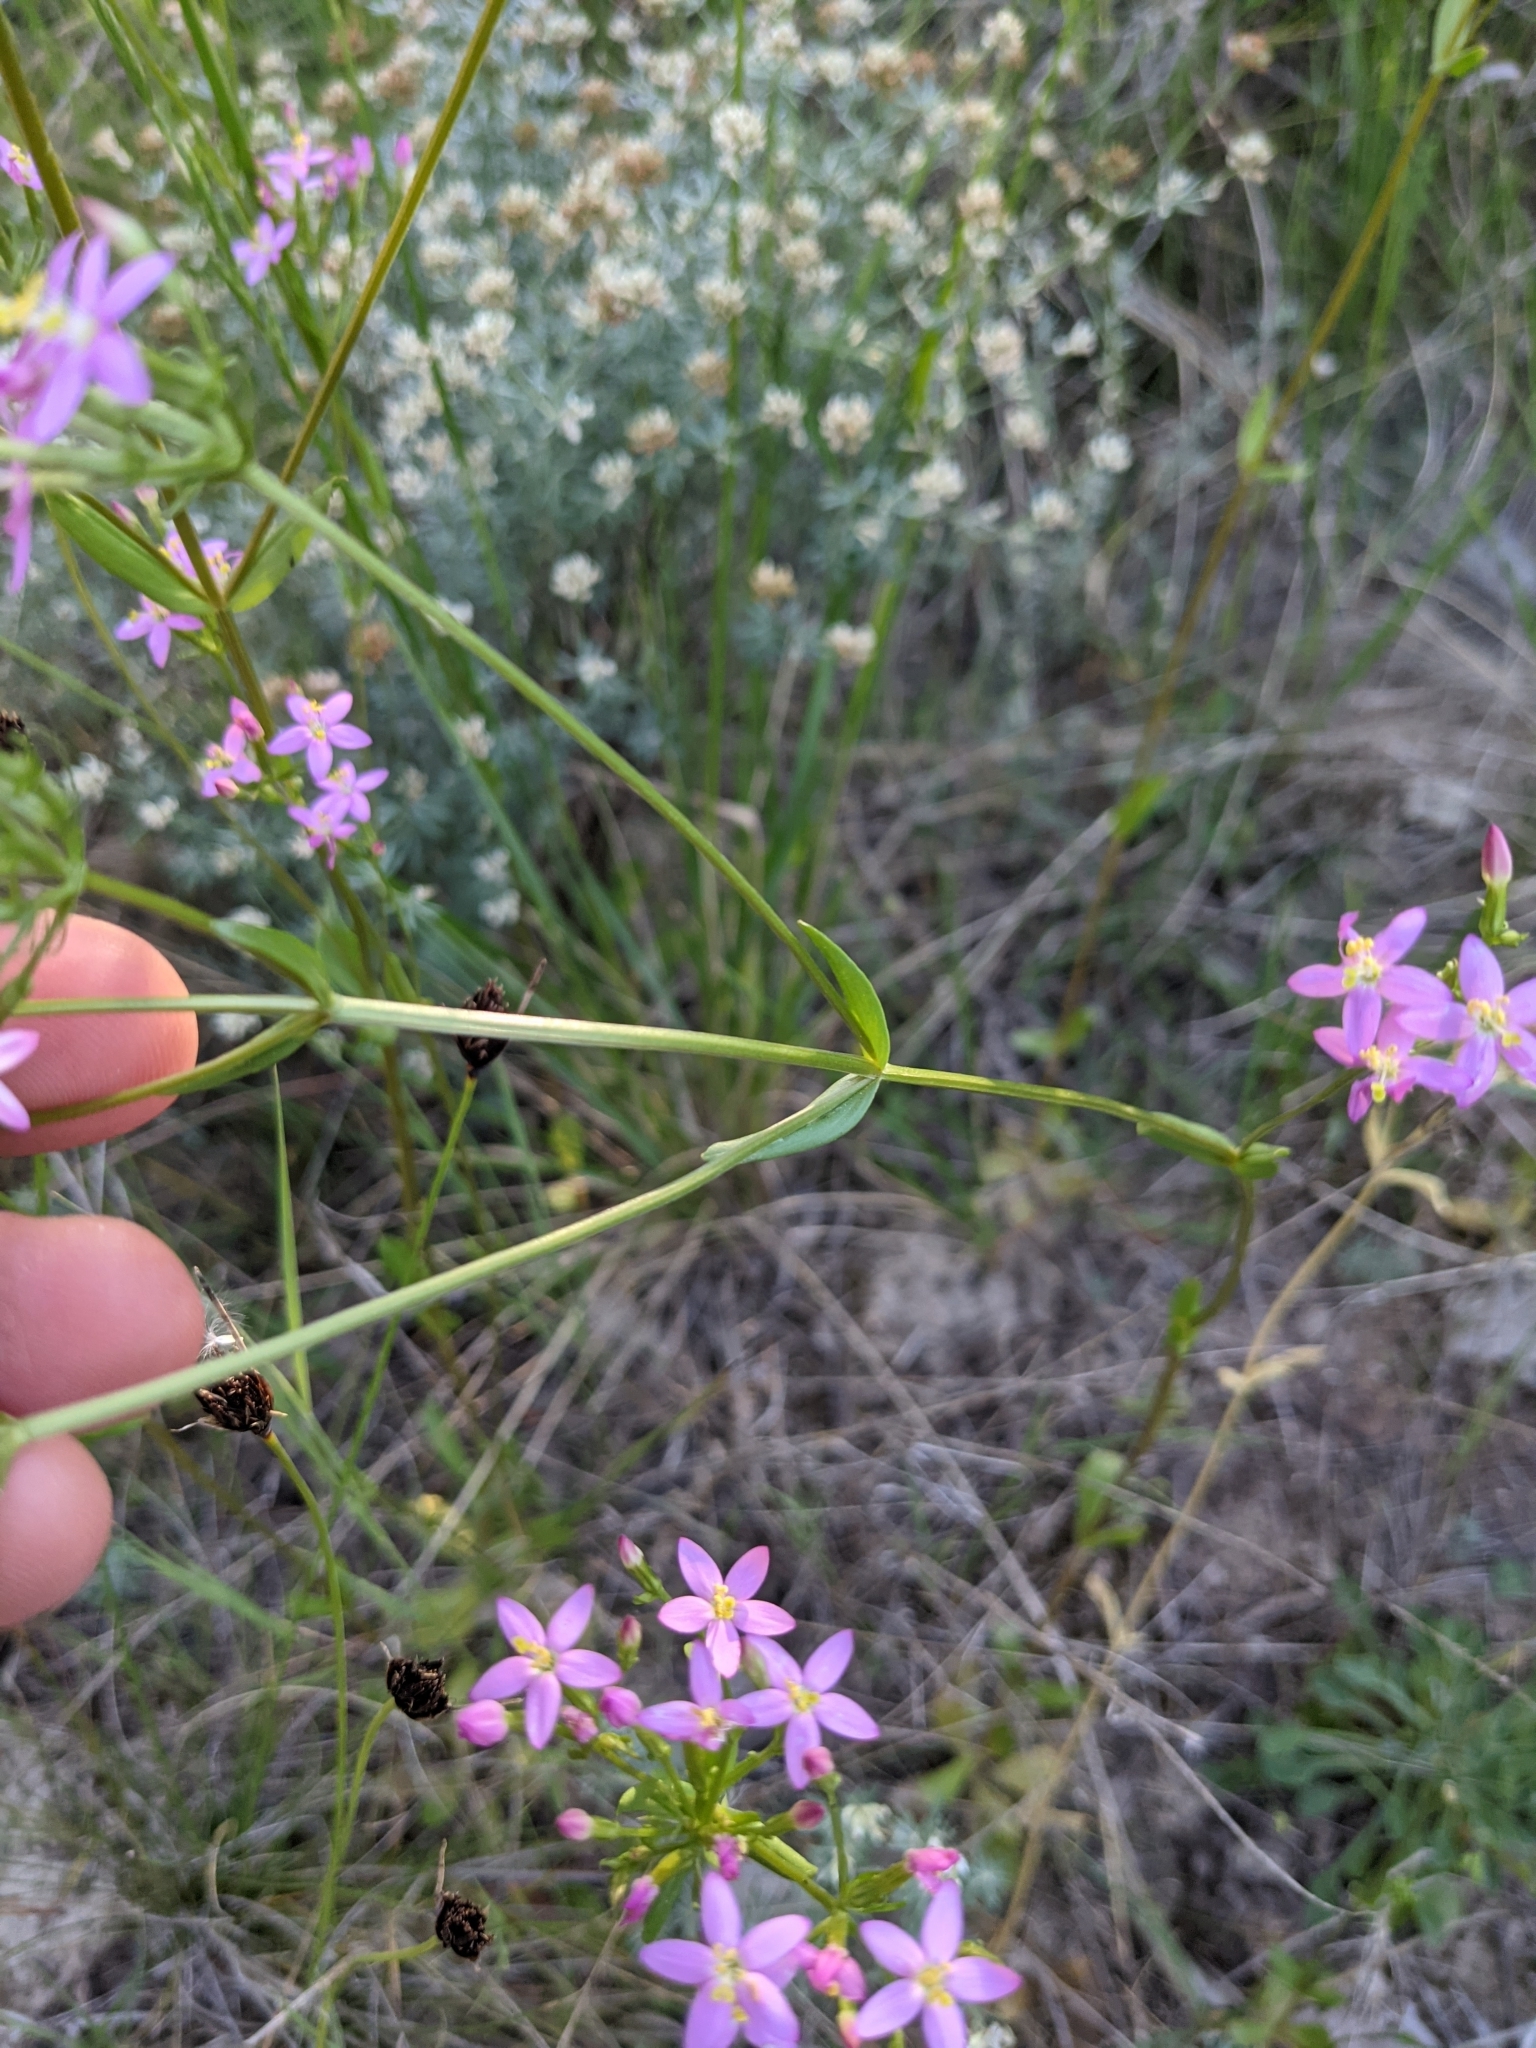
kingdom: Plantae
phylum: Tracheophyta
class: Magnoliopsida
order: Gentianales
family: Gentianaceae
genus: Centaurium
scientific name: Centaurium erythraea
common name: Common centaury
